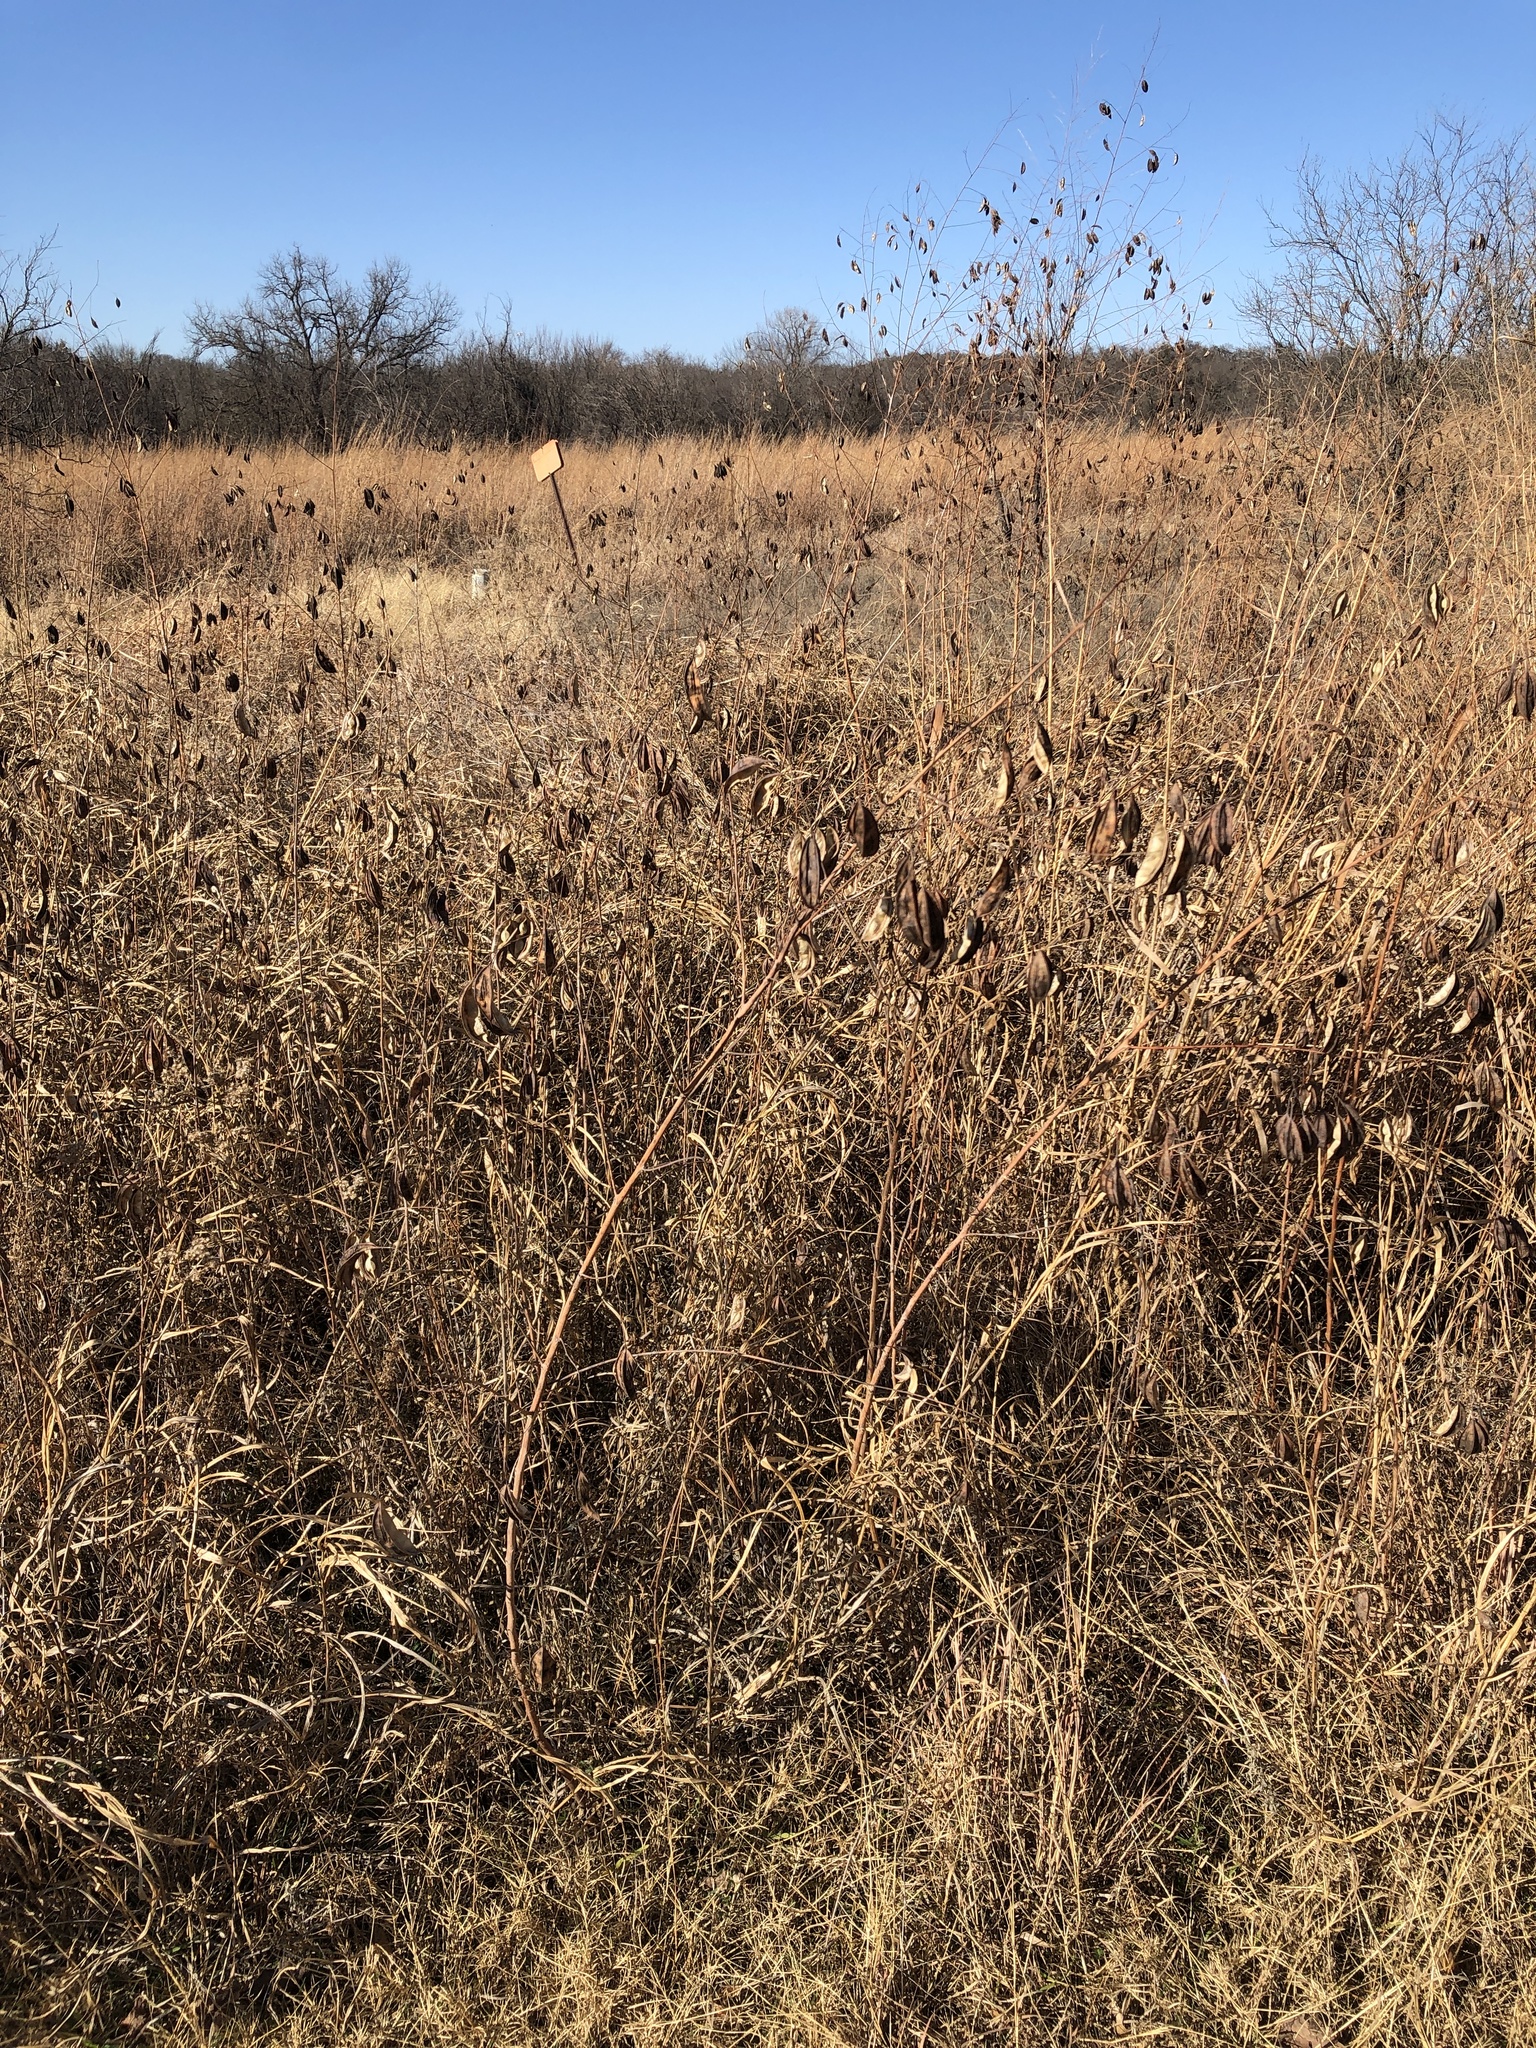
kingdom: Plantae
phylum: Tracheophyta
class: Magnoliopsida
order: Fabales
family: Fabaceae
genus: Sesbania
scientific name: Sesbania vesicaria
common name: Bagpod
